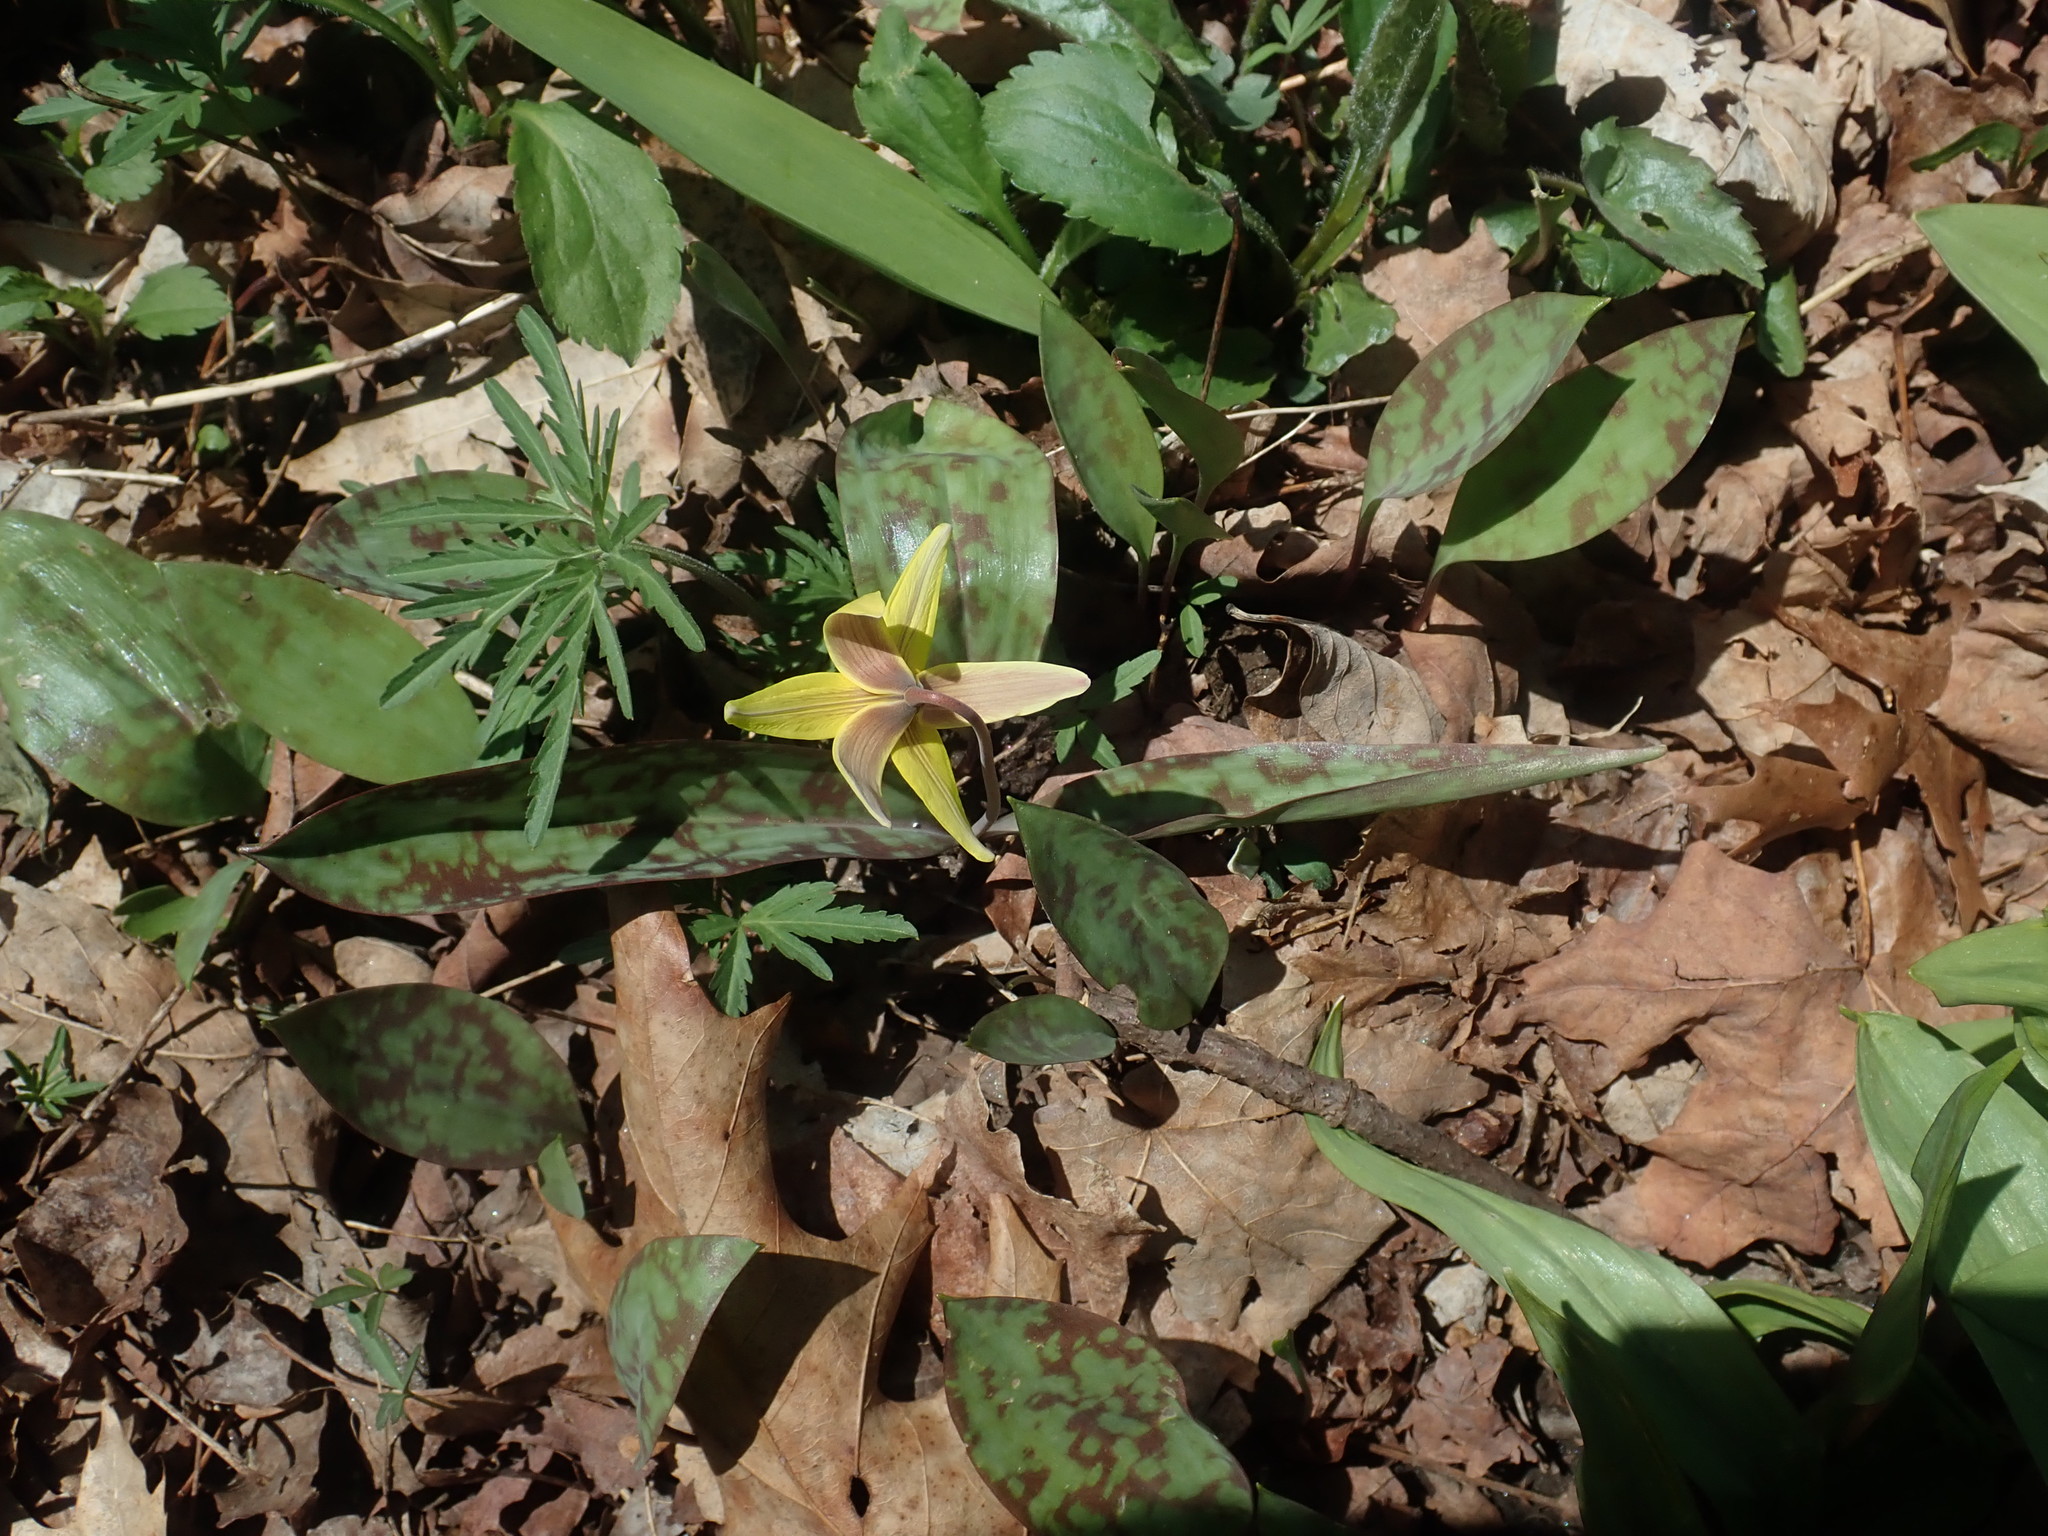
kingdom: Plantae
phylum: Tracheophyta
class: Liliopsida
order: Liliales
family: Liliaceae
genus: Erythronium
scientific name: Erythronium americanum
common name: Yellow adder's-tongue
